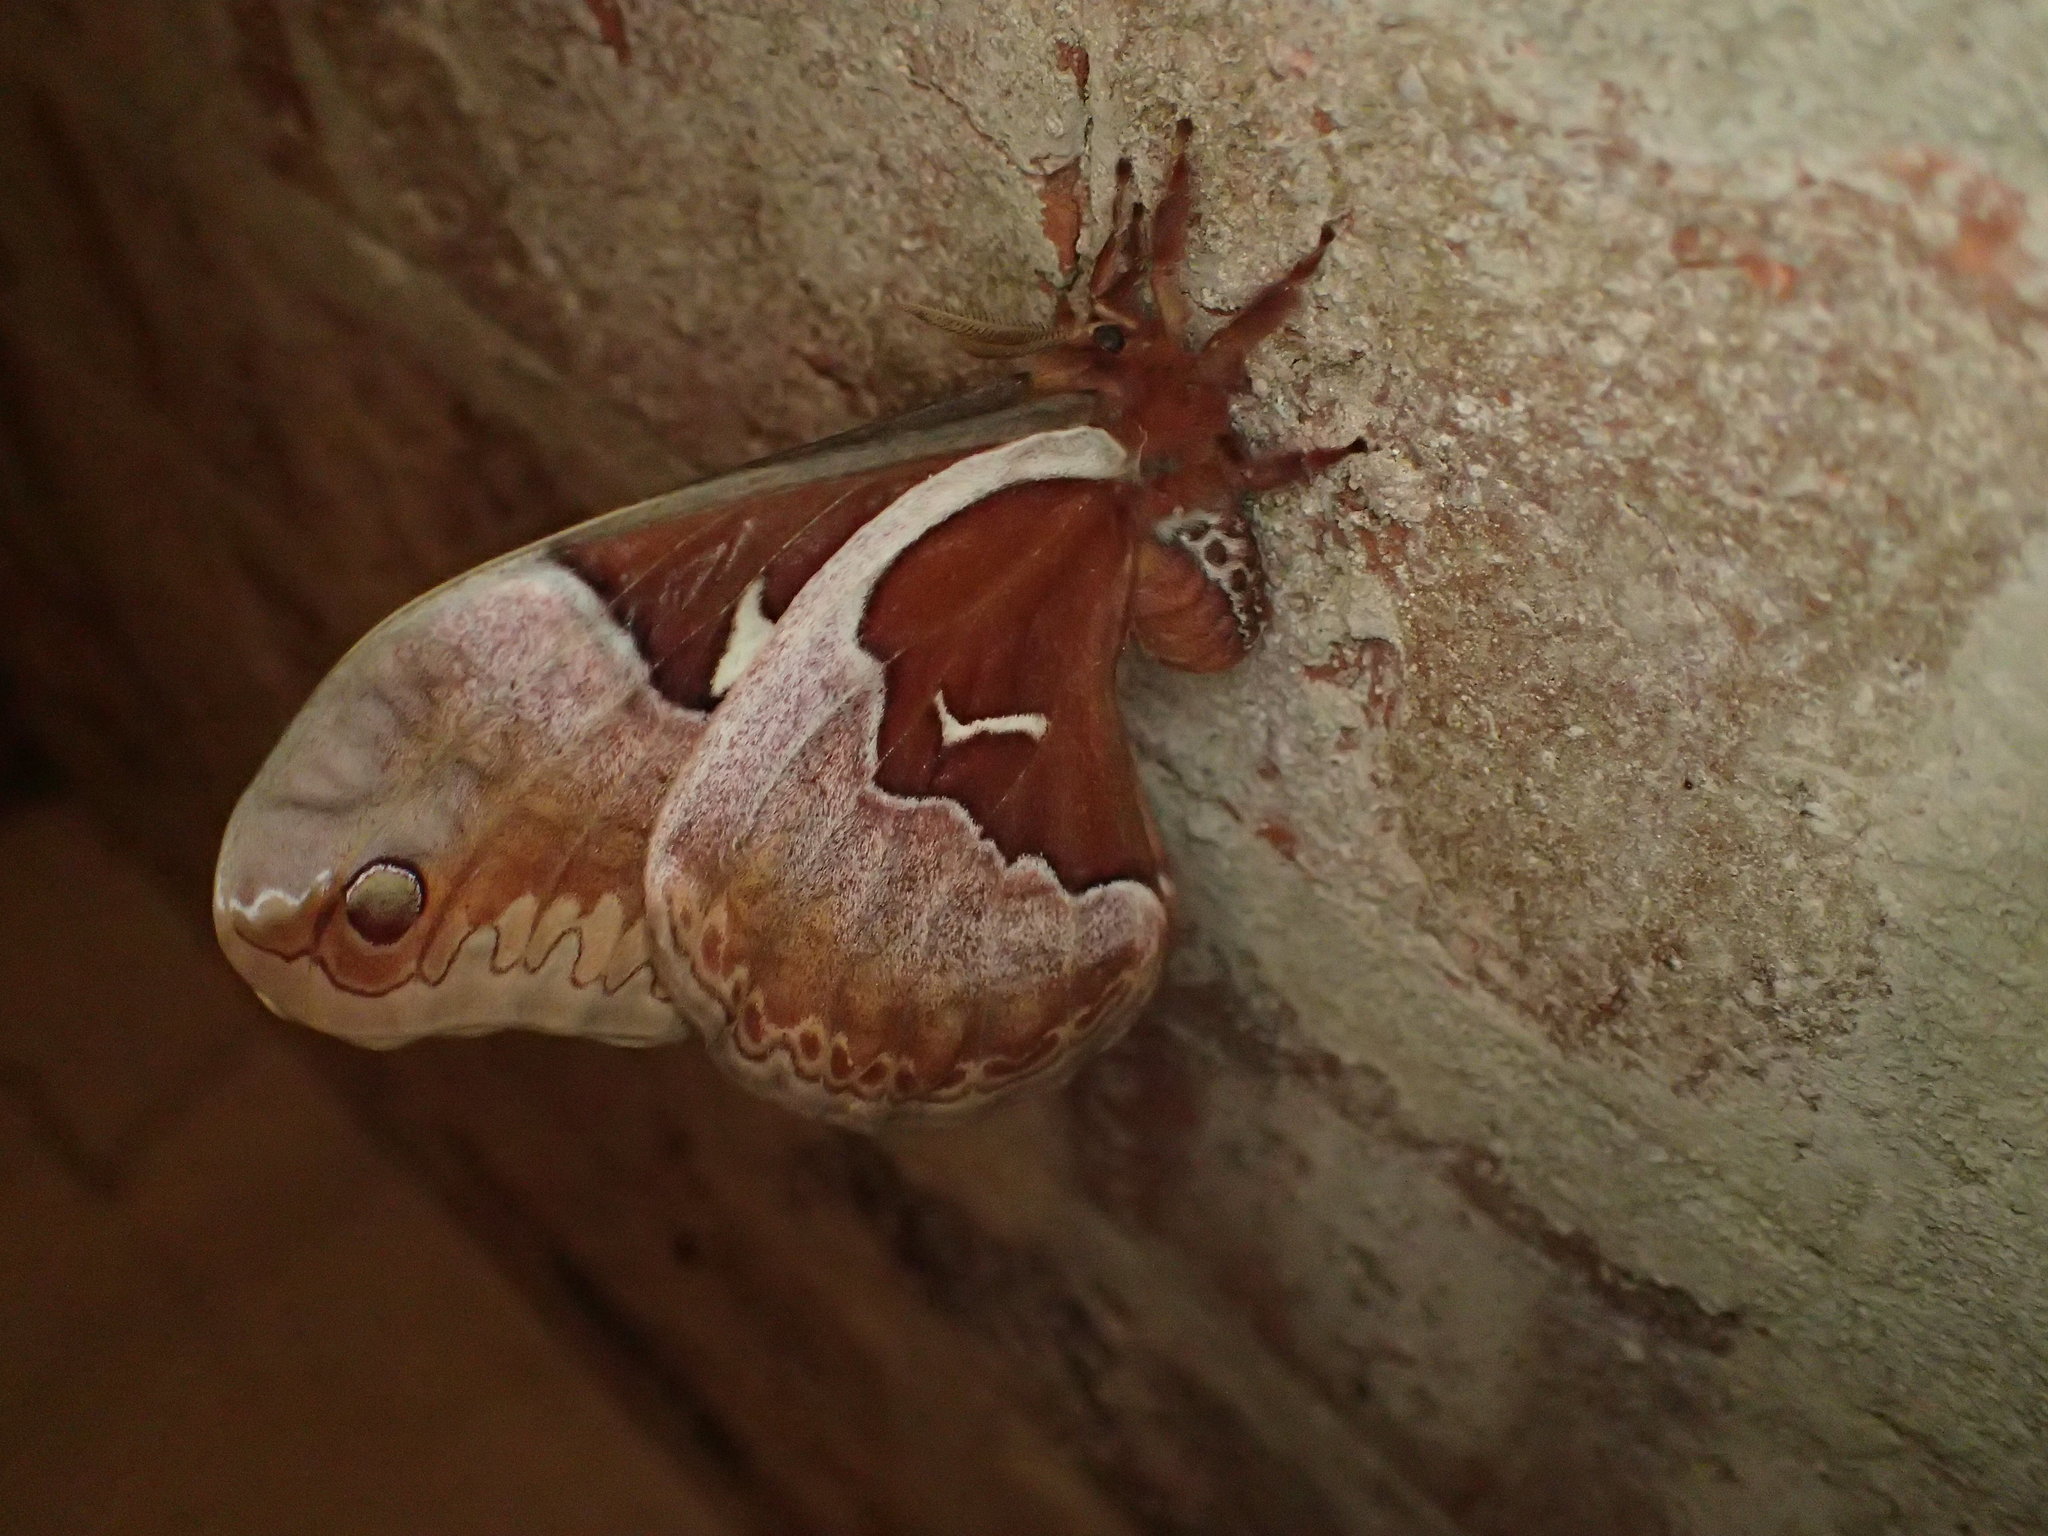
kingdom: Animalia
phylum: Arthropoda
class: Insecta
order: Lepidoptera
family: Saturniidae
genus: Callosamia
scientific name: Callosamia angulifera
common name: Tulip tree silkmoth
